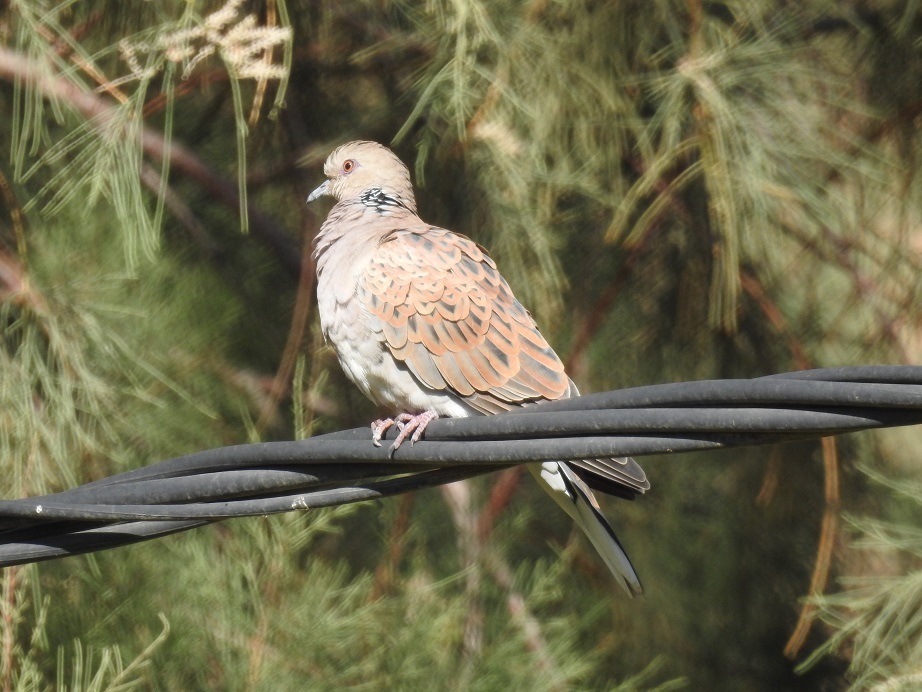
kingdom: Animalia
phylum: Chordata
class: Aves
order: Columbiformes
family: Columbidae
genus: Streptopelia
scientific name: Streptopelia turtur
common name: European turtle dove
